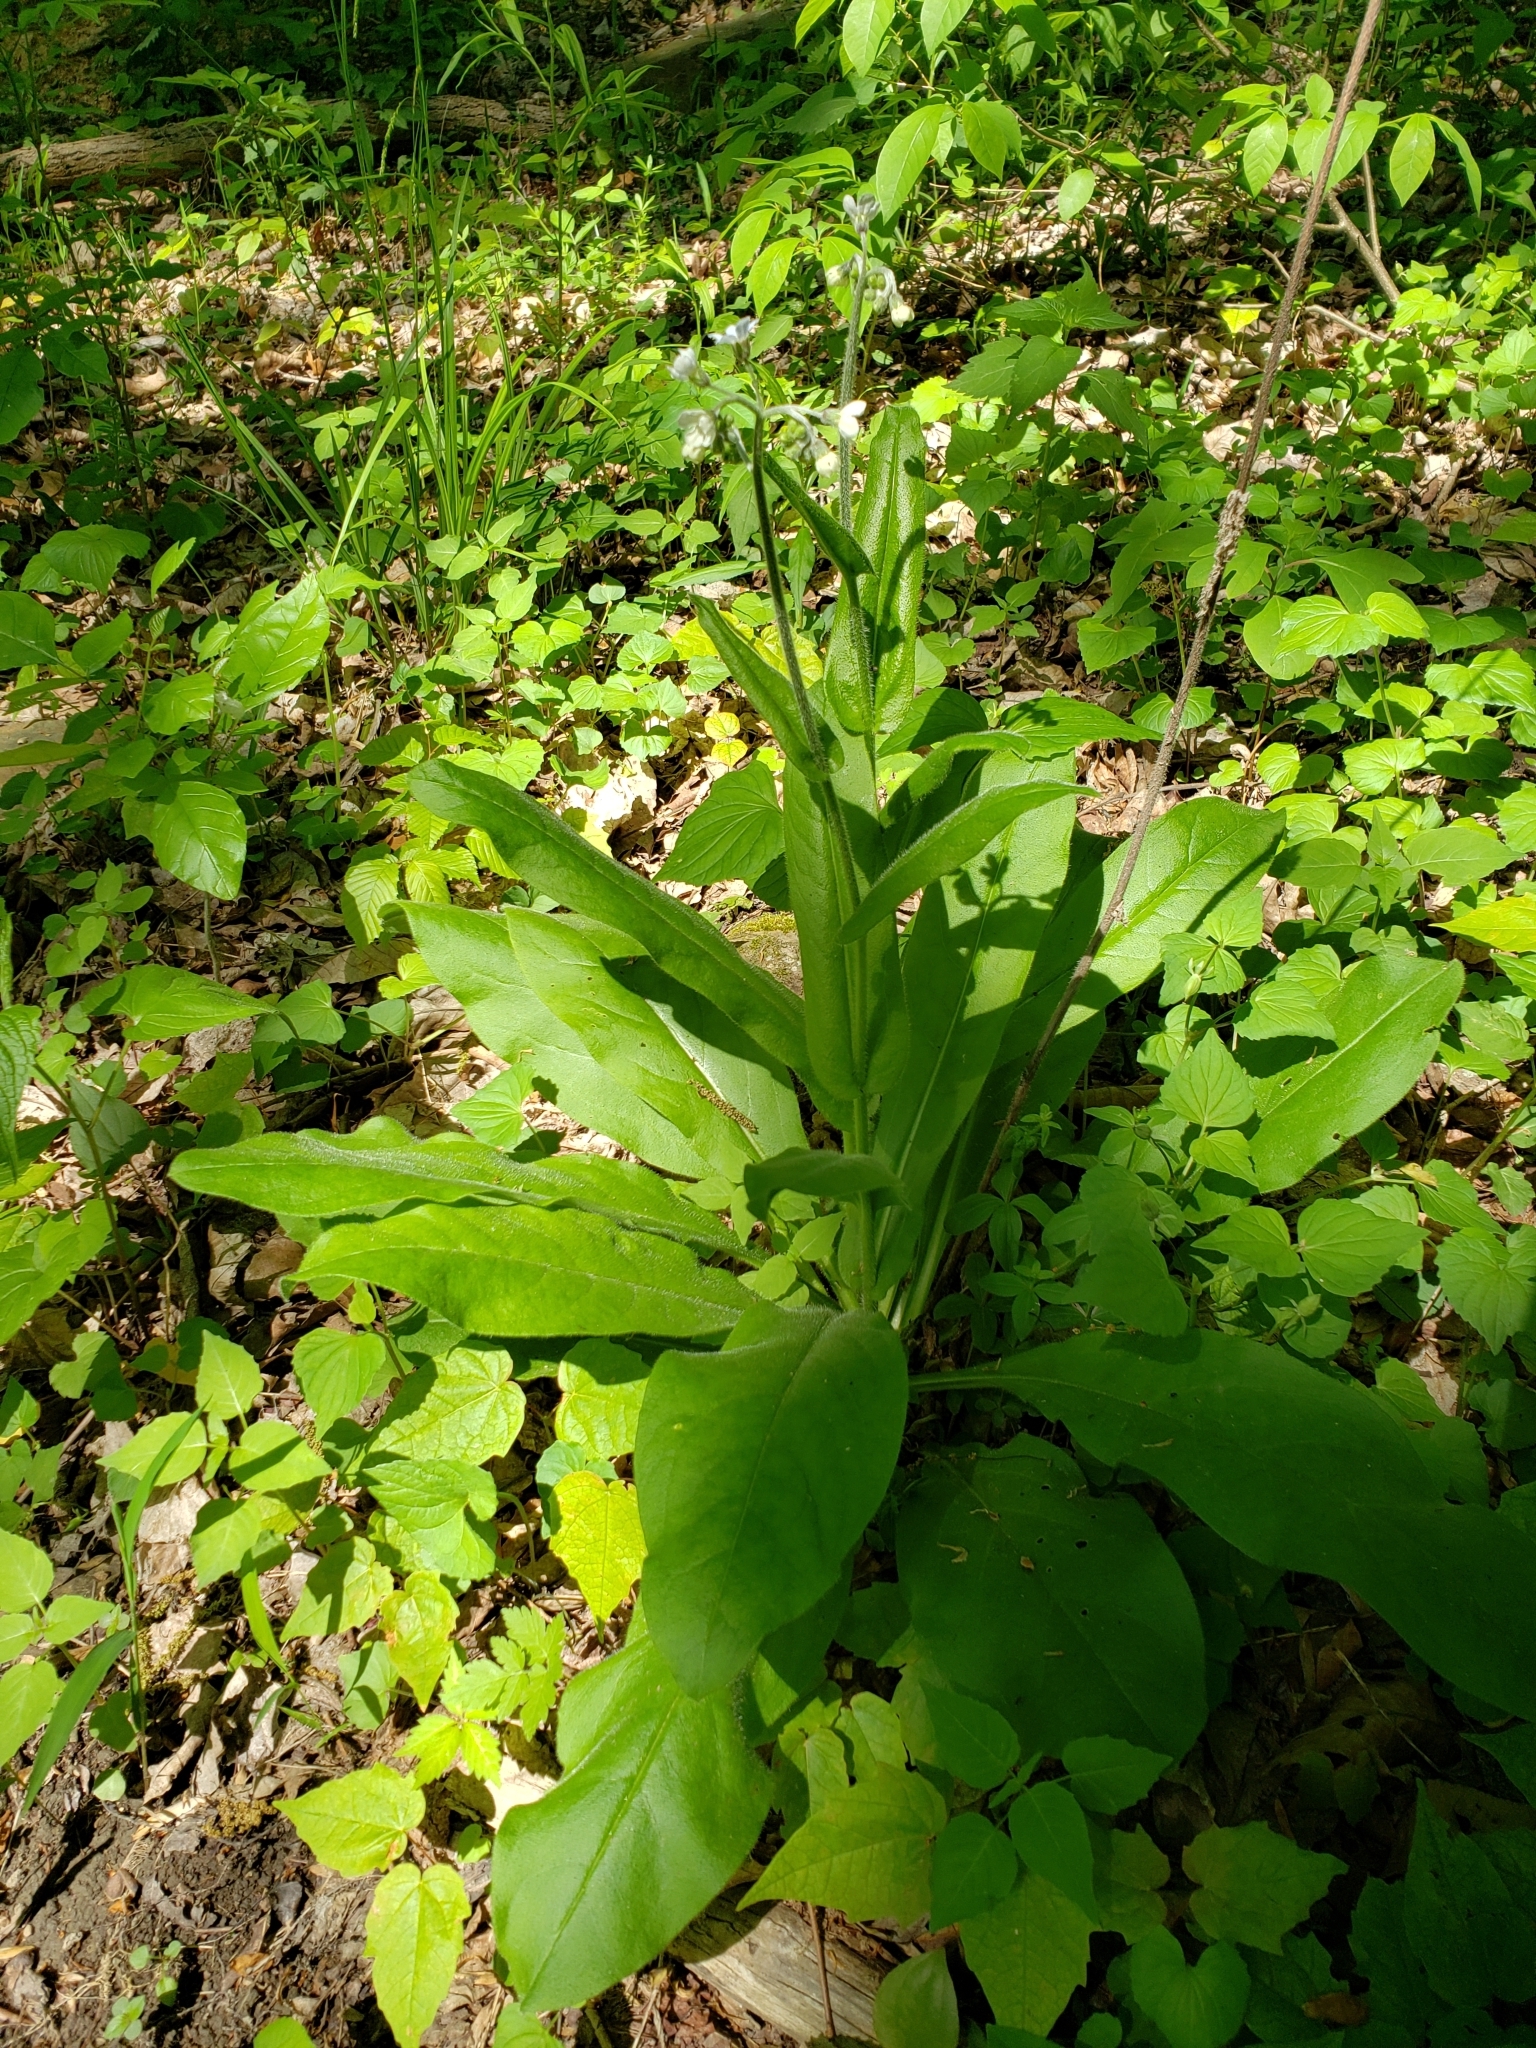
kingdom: Plantae
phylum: Tracheophyta
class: Magnoliopsida
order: Boraginales
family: Boraginaceae
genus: Andersonglossum
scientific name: Andersonglossum virginianum
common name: Wild comfrey
